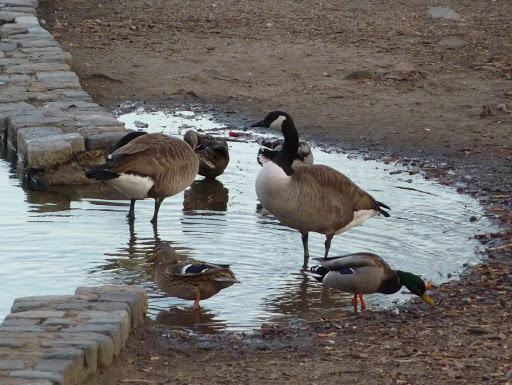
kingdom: Animalia
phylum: Chordata
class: Aves
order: Anseriformes
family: Anatidae
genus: Branta
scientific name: Branta canadensis
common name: Canada goose
